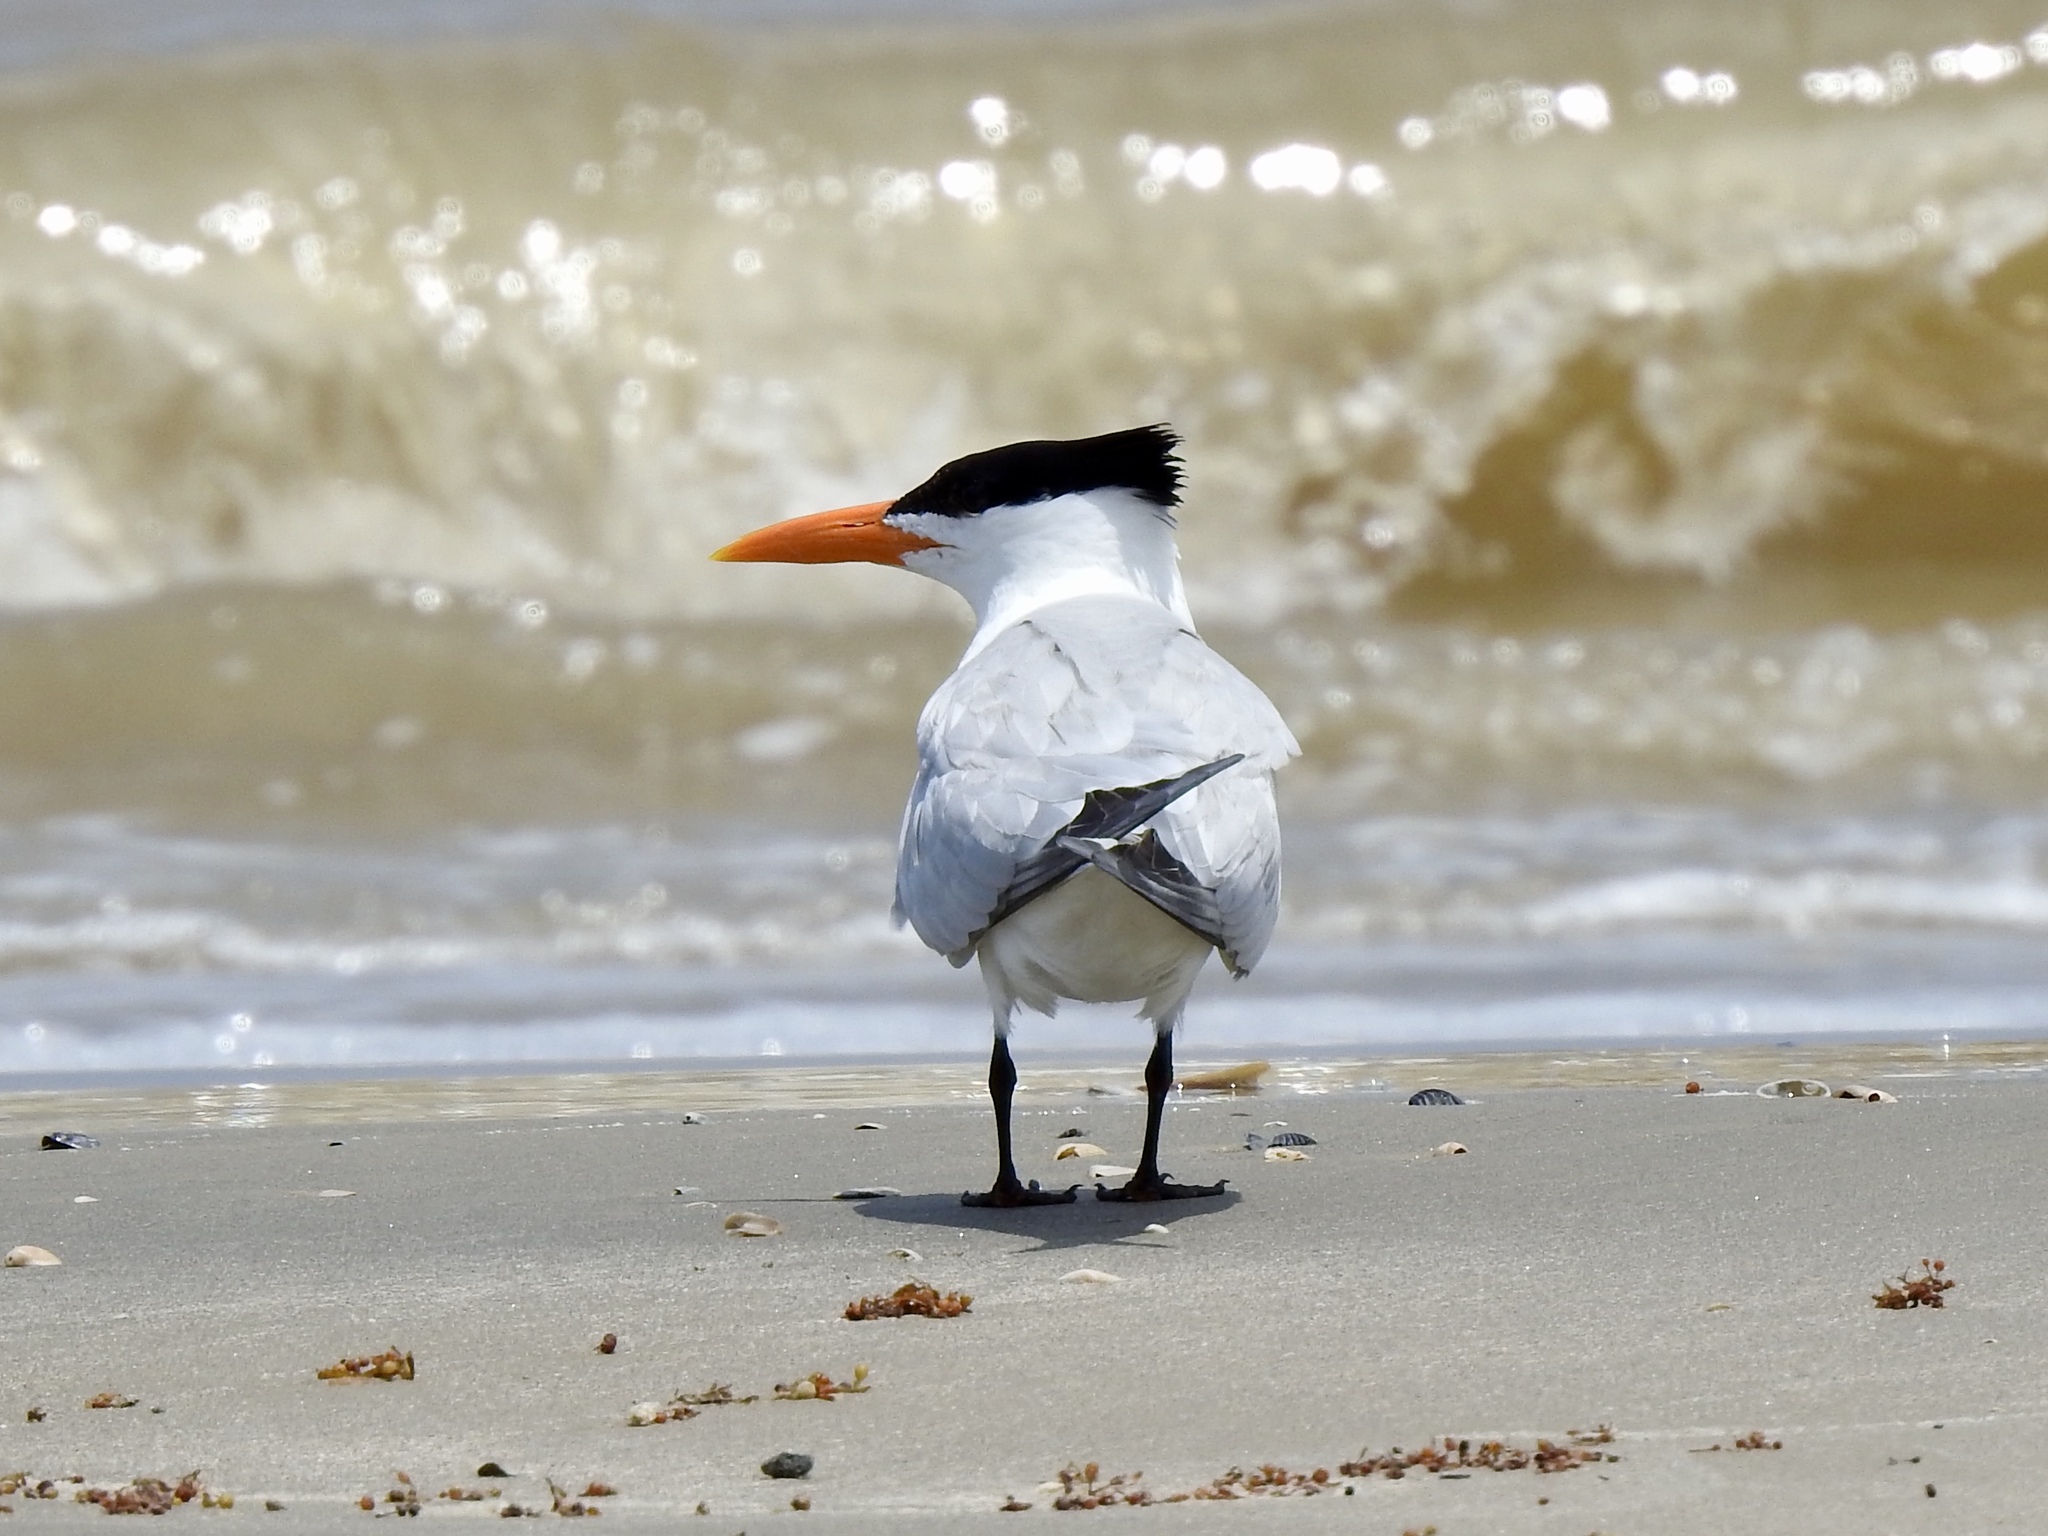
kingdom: Animalia
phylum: Chordata
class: Aves
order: Charadriiformes
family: Laridae
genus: Thalasseus
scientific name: Thalasseus maximus
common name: Royal tern
